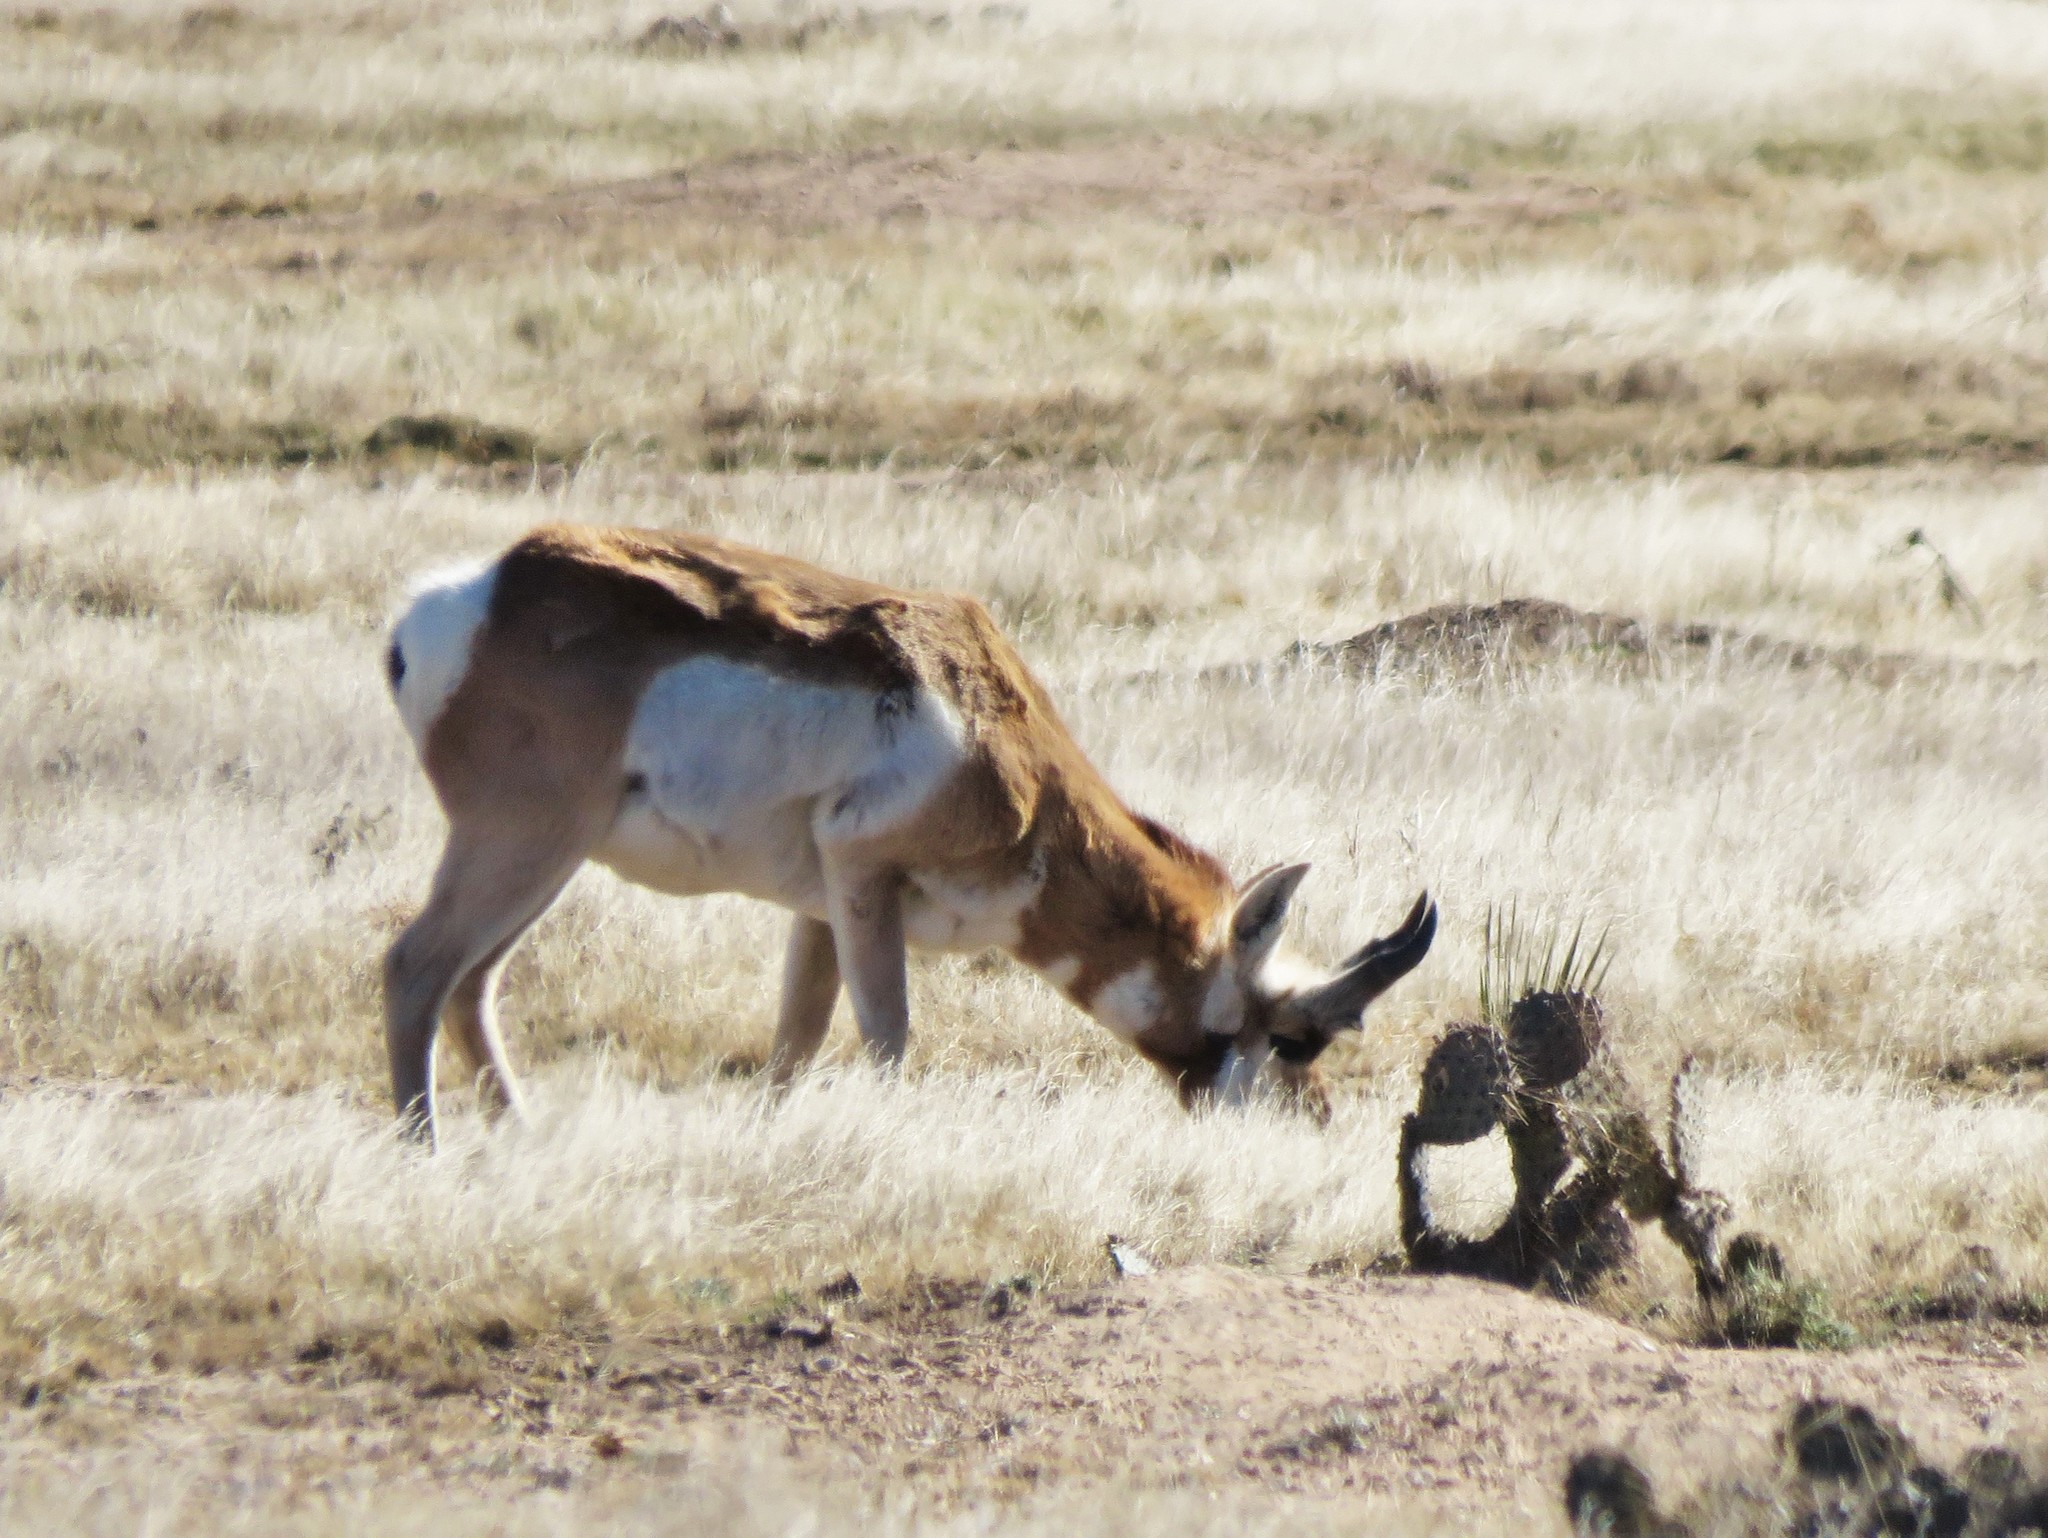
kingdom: Animalia
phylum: Chordata
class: Mammalia
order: Artiodactyla
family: Antilocapridae
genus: Antilocapra
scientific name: Antilocapra americana
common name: Pronghorn
